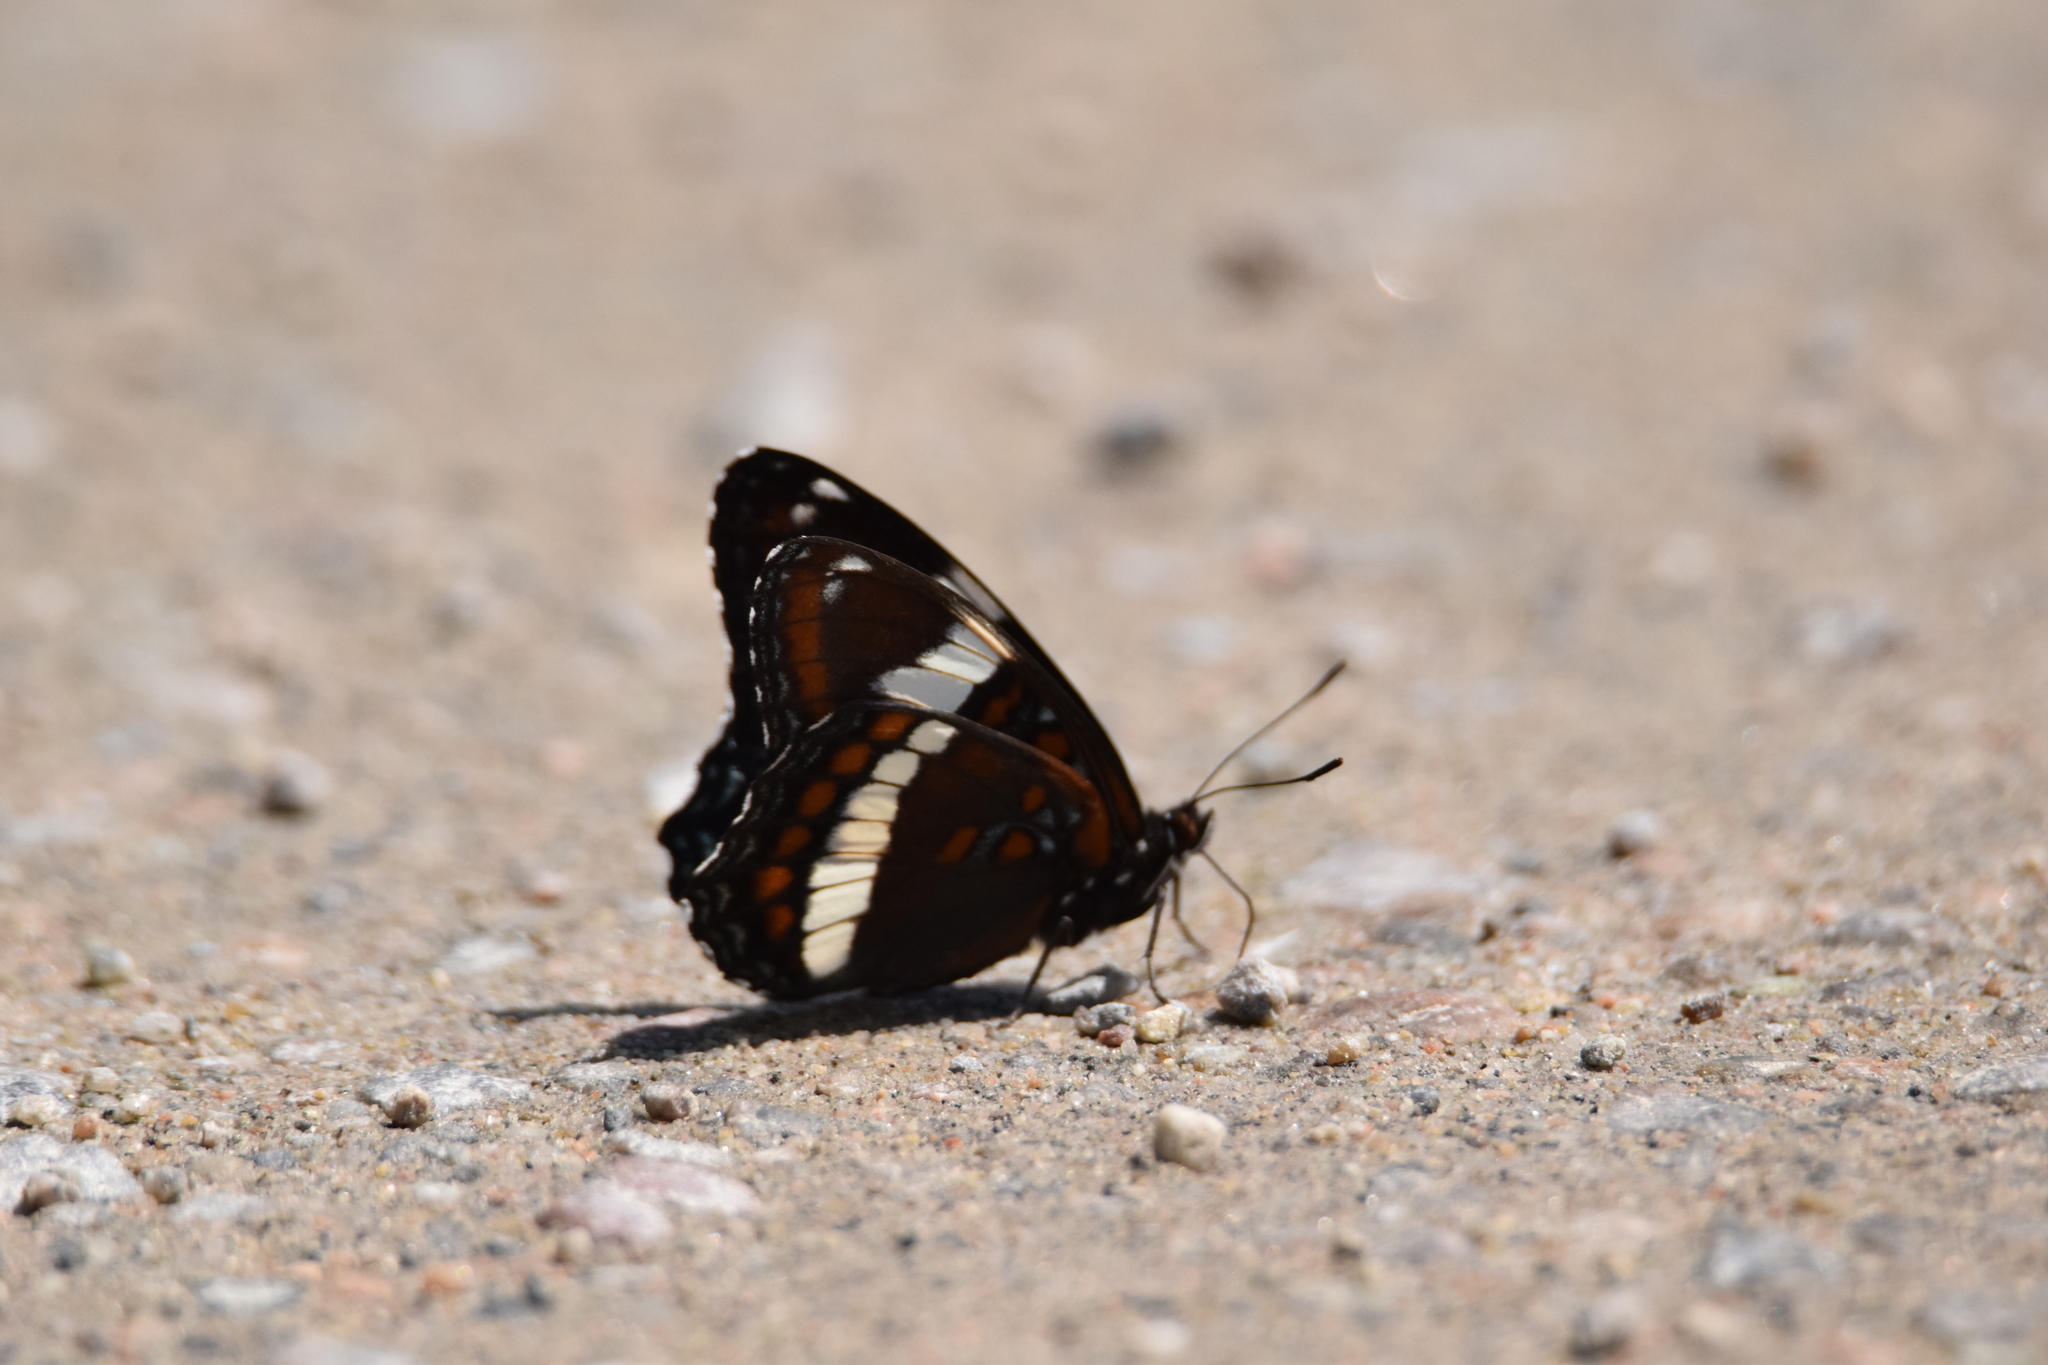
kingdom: Animalia
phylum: Arthropoda
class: Insecta
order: Lepidoptera
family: Nymphalidae
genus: Limenitis
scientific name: Limenitis arthemis
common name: Red-spotted admiral
